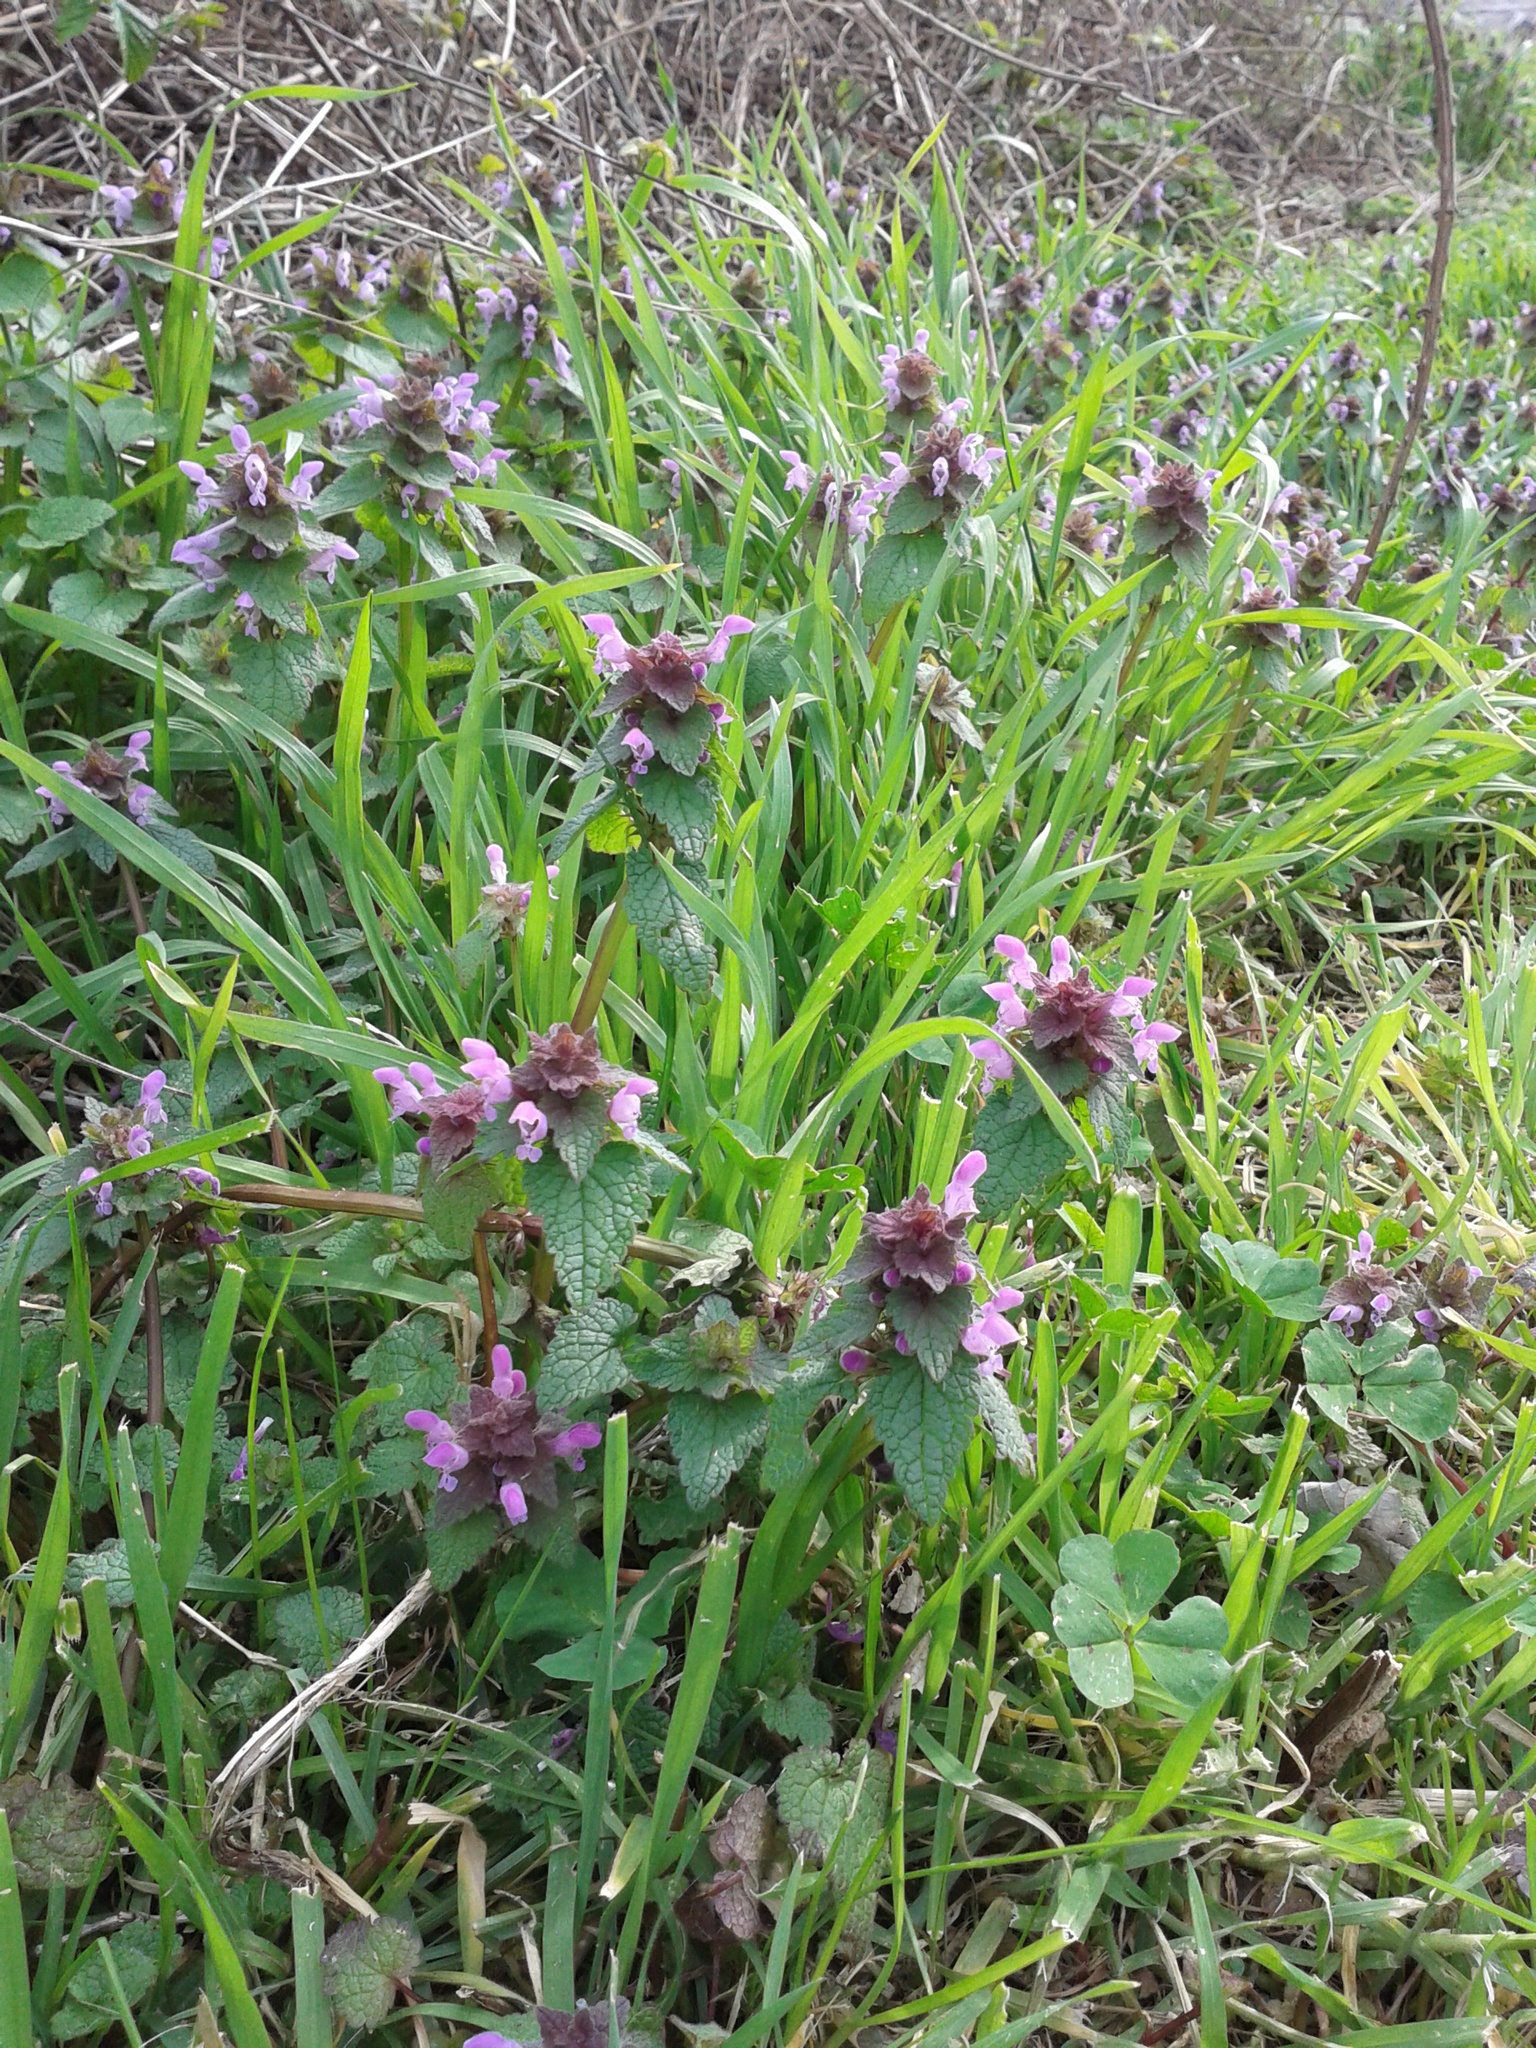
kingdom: Plantae
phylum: Tracheophyta
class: Magnoliopsida
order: Lamiales
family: Lamiaceae
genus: Lamium
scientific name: Lamium purpureum
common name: Red dead-nettle
